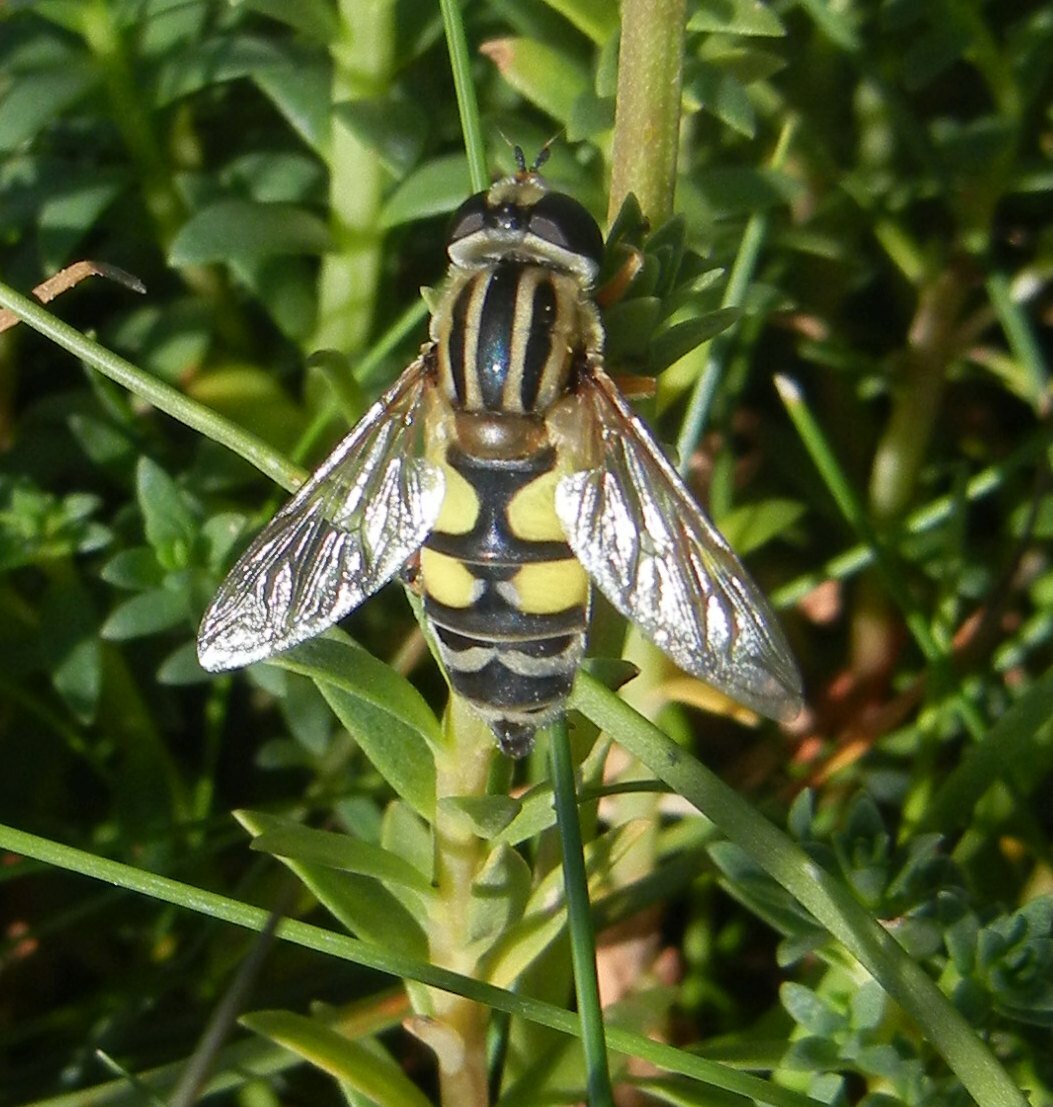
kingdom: Animalia
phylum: Arthropoda
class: Insecta
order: Diptera
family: Syrphidae
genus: Helophilus
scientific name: Helophilus trivittatus
